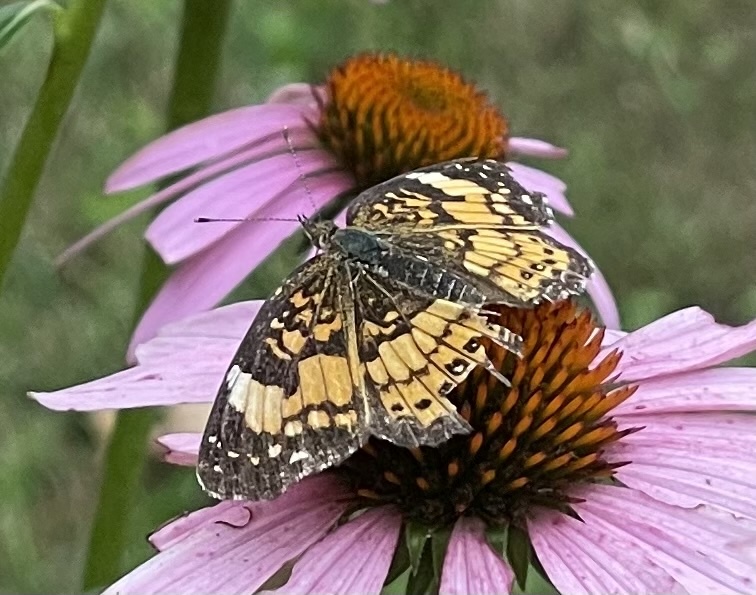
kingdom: Animalia
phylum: Arthropoda
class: Insecta
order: Lepidoptera
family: Nymphalidae
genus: Chlosyne
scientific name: Chlosyne nycteis
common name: Silvery checkerspot
